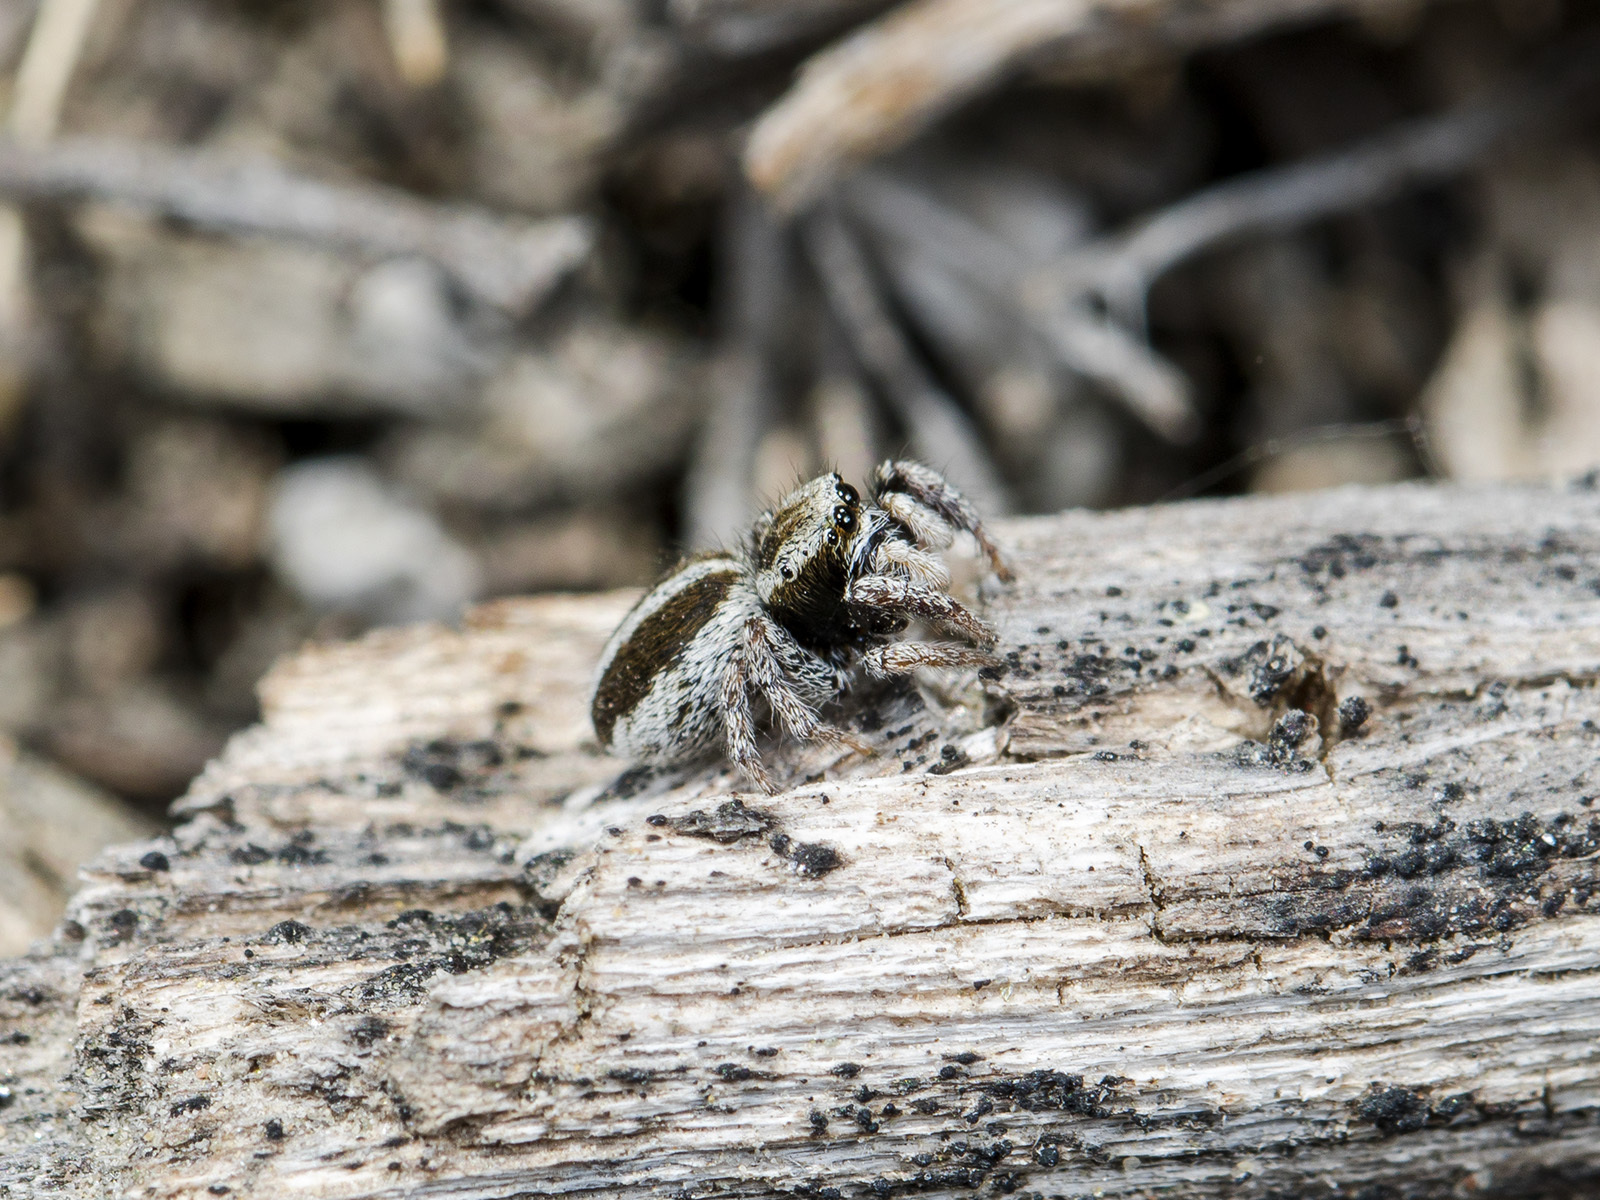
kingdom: Animalia
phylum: Arthropoda
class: Arachnida
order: Araneae
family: Salticidae
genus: Pellenes
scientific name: Pellenes epularis
